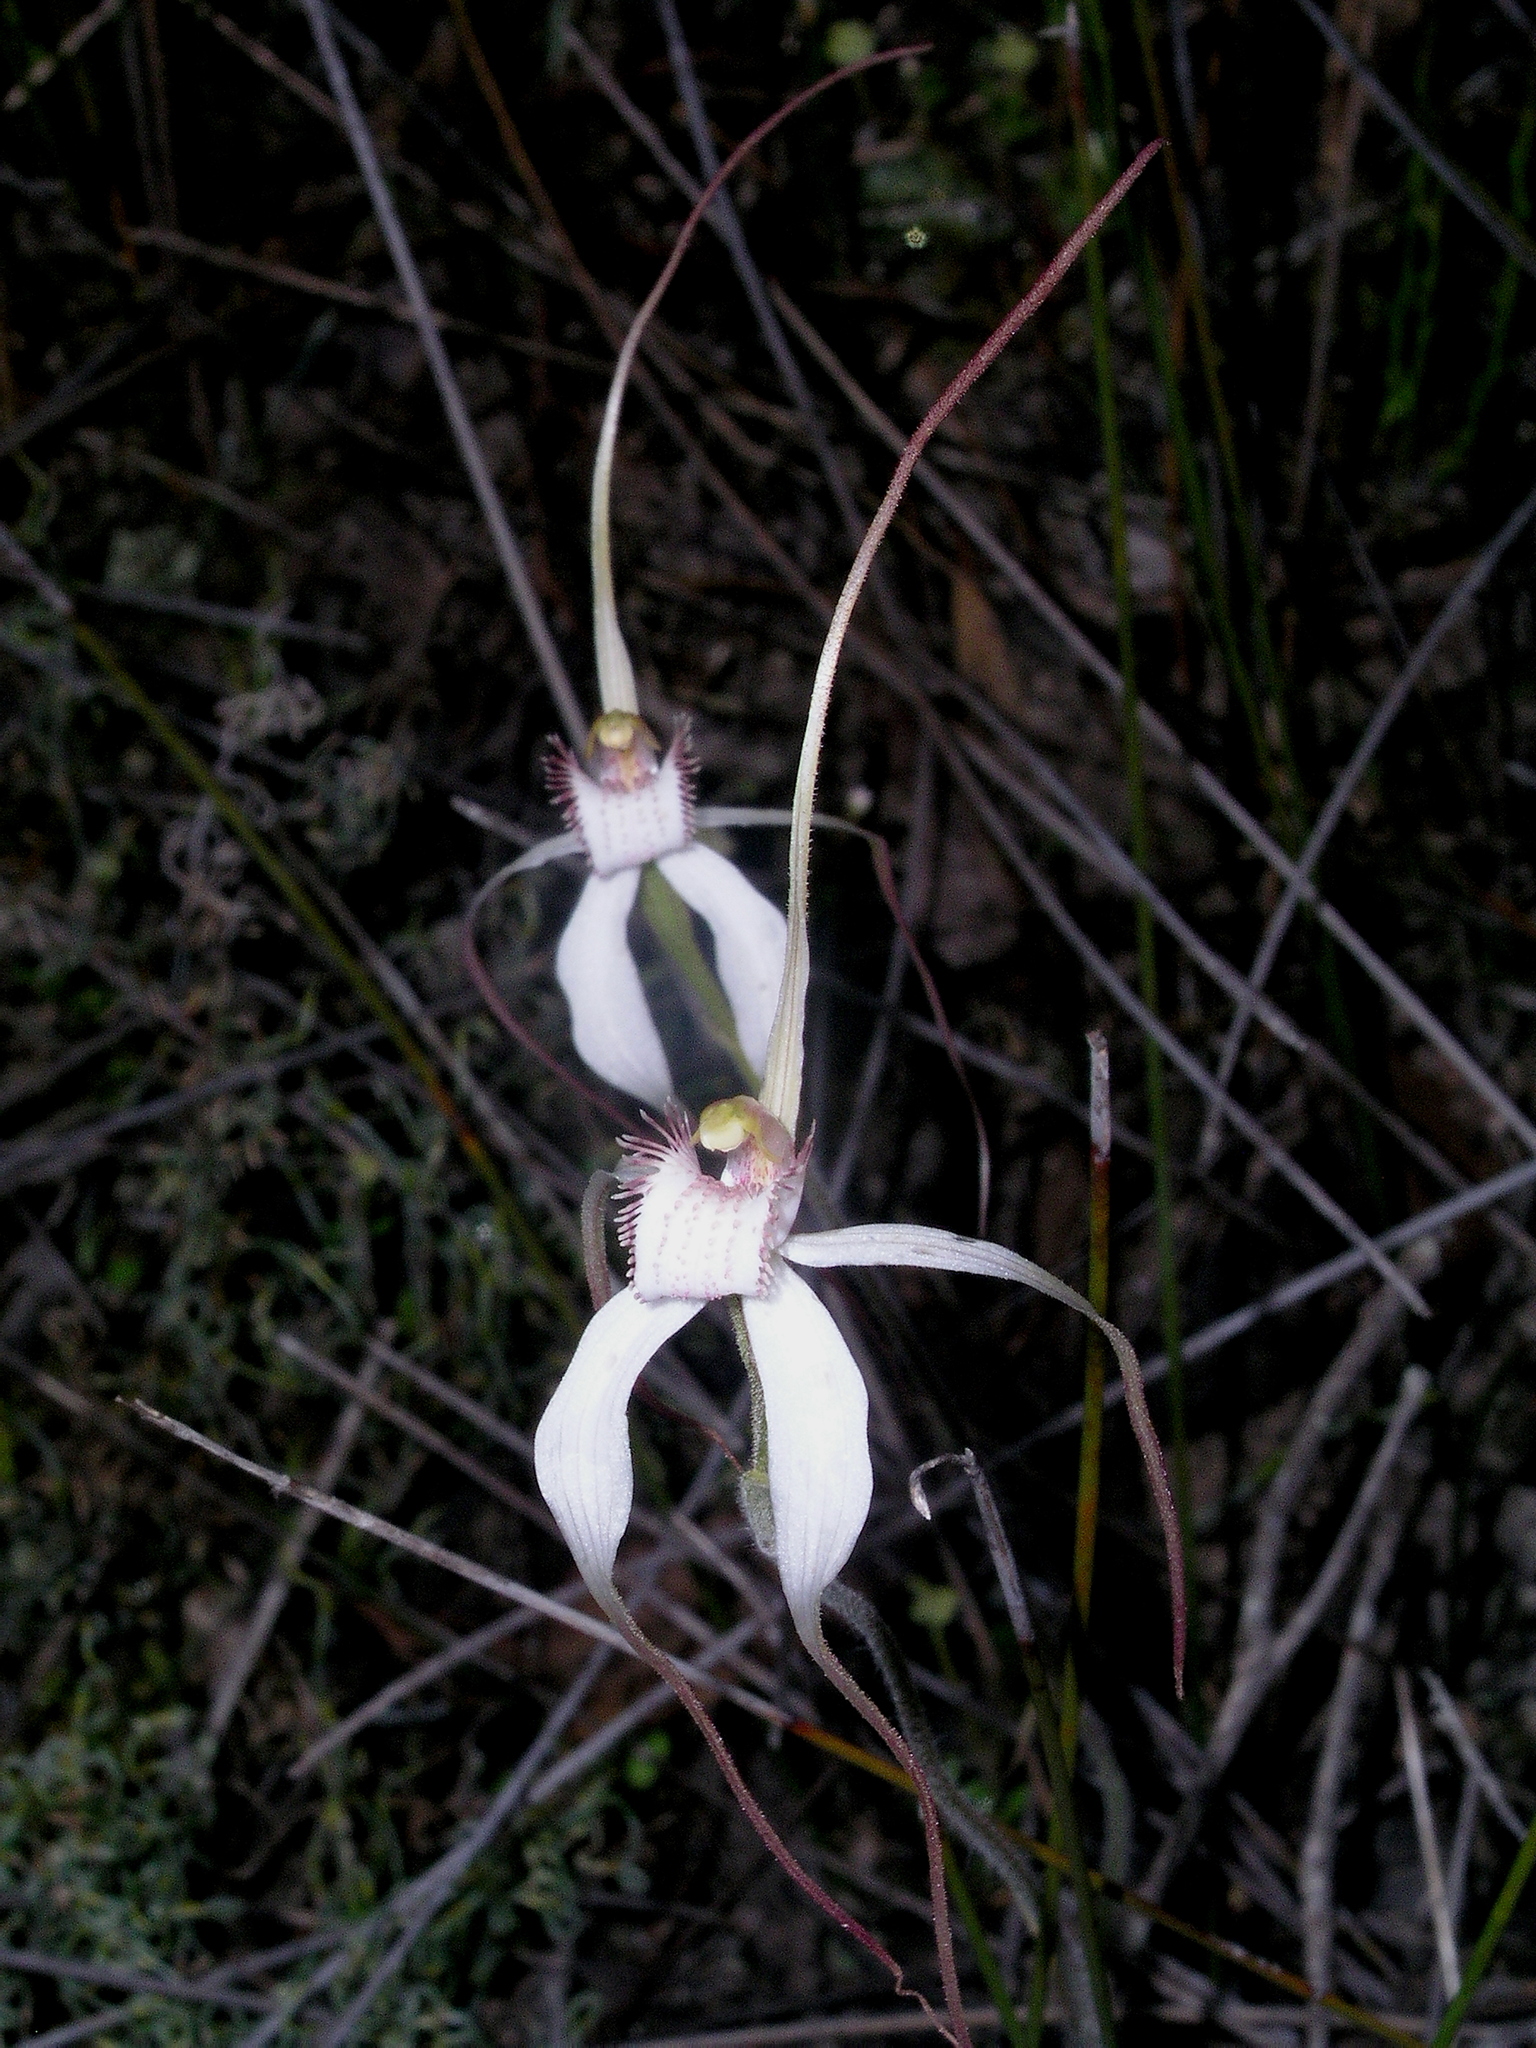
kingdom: Plantae
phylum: Tracheophyta
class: Liliopsida
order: Asparagales
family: Orchidaceae
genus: Caladenia
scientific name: Caladenia longicauda
